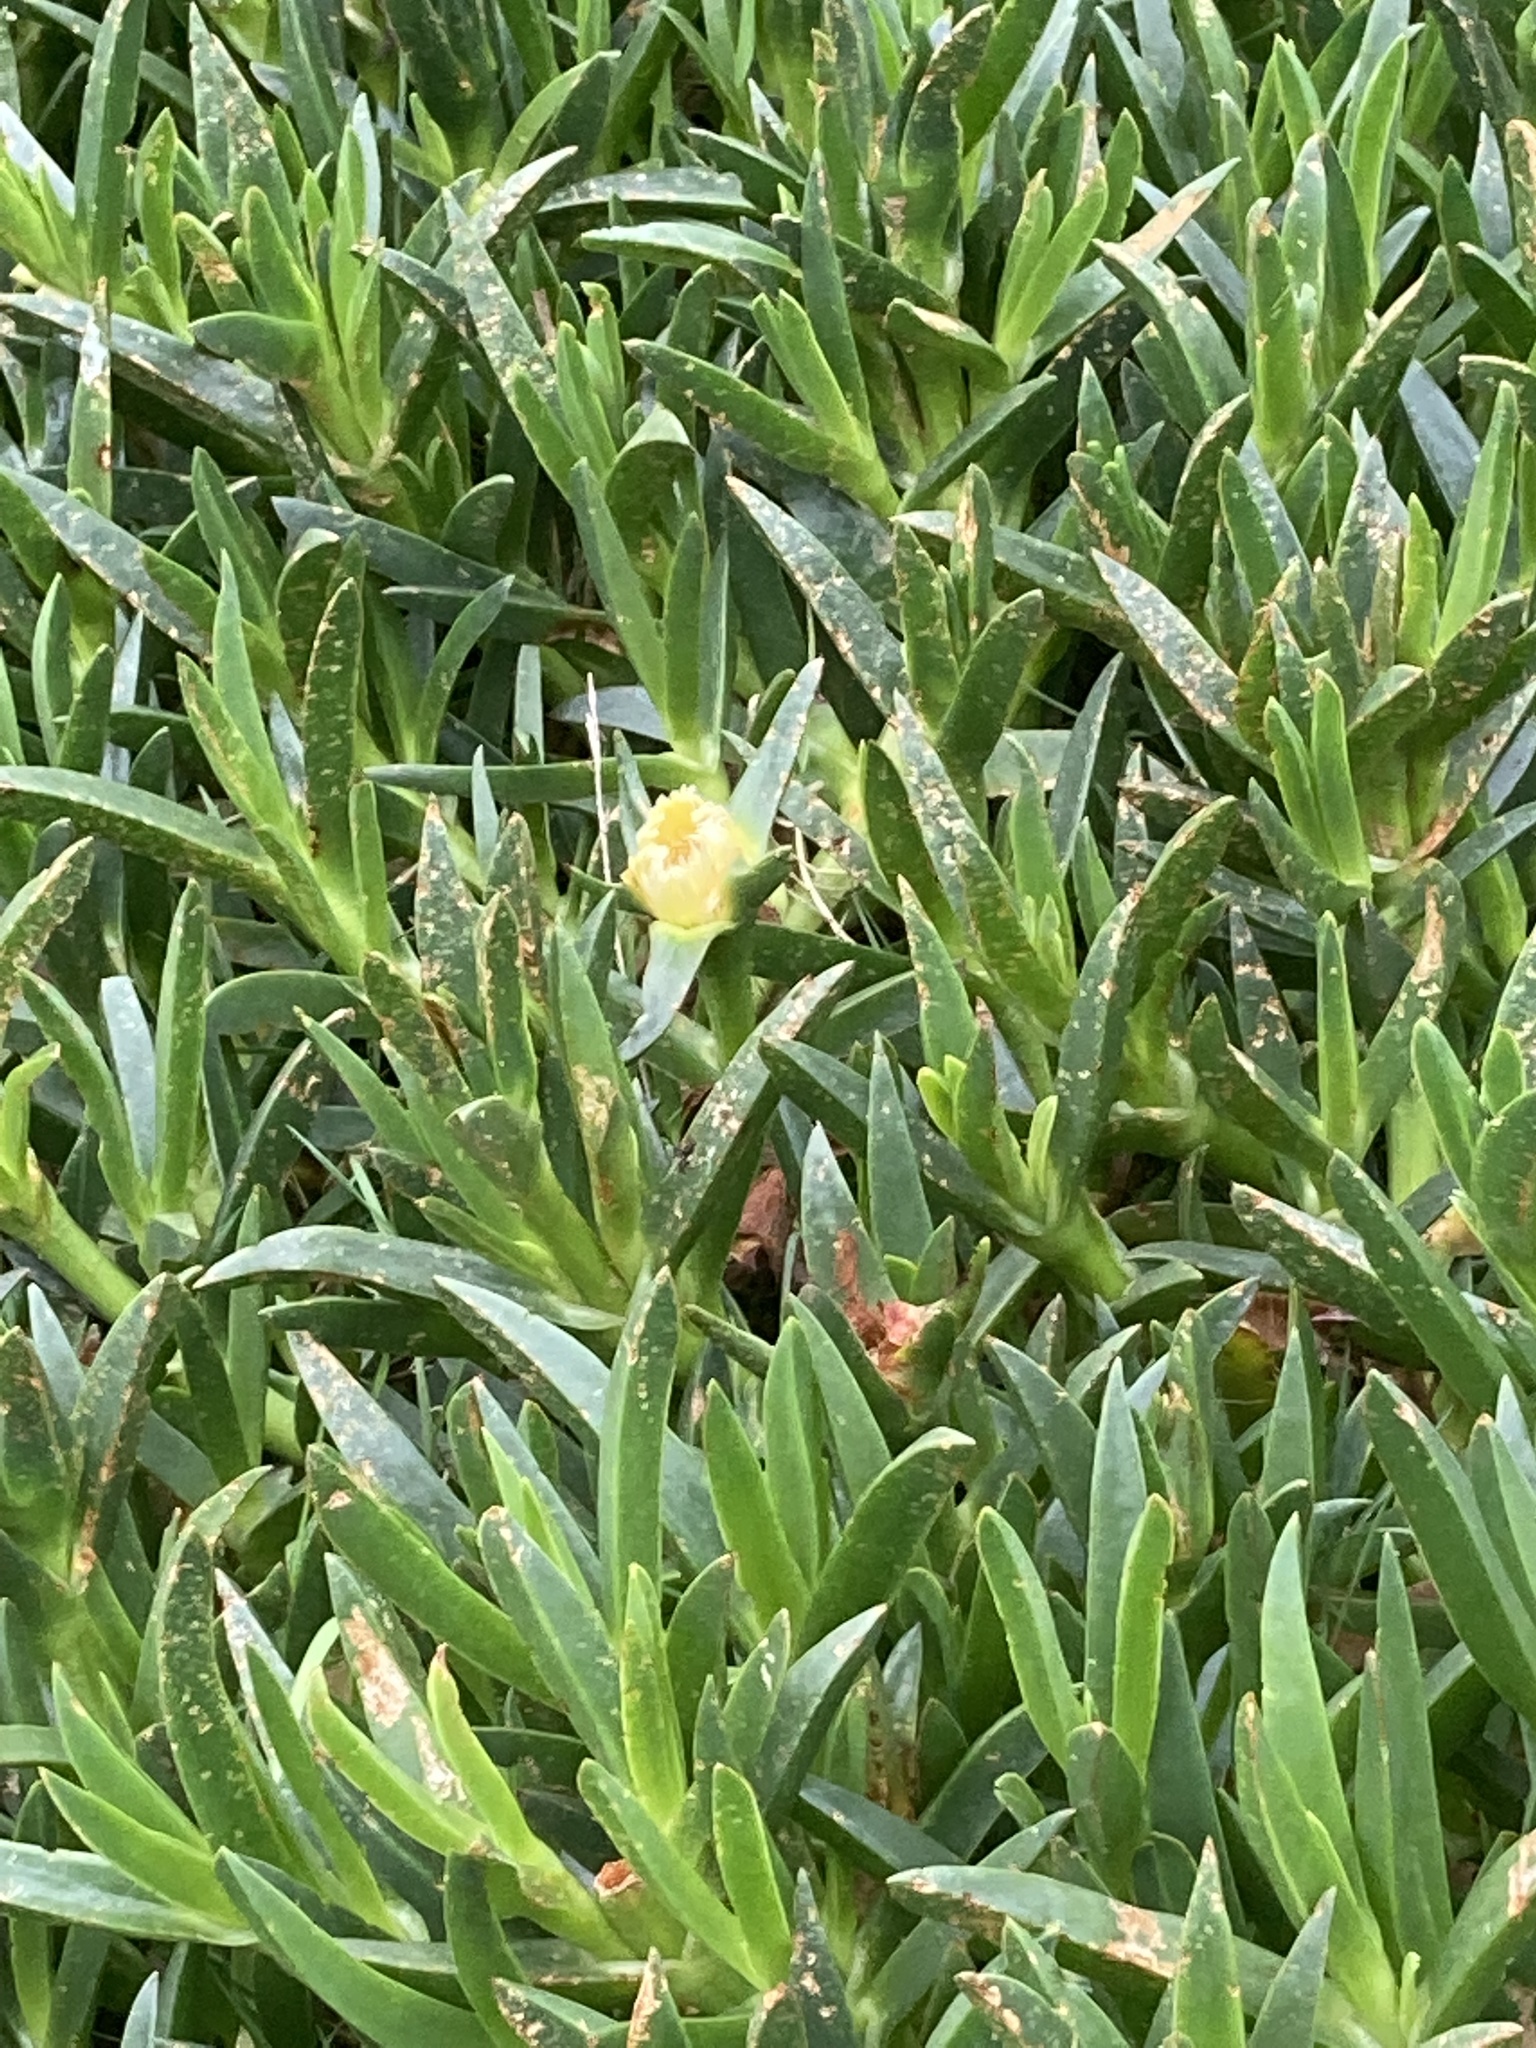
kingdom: Plantae
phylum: Tracheophyta
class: Magnoliopsida
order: Caryophyllales
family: Aizoaceae
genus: Carpobrotus
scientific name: Carpobrotus edulis
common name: Hottentot-fig
